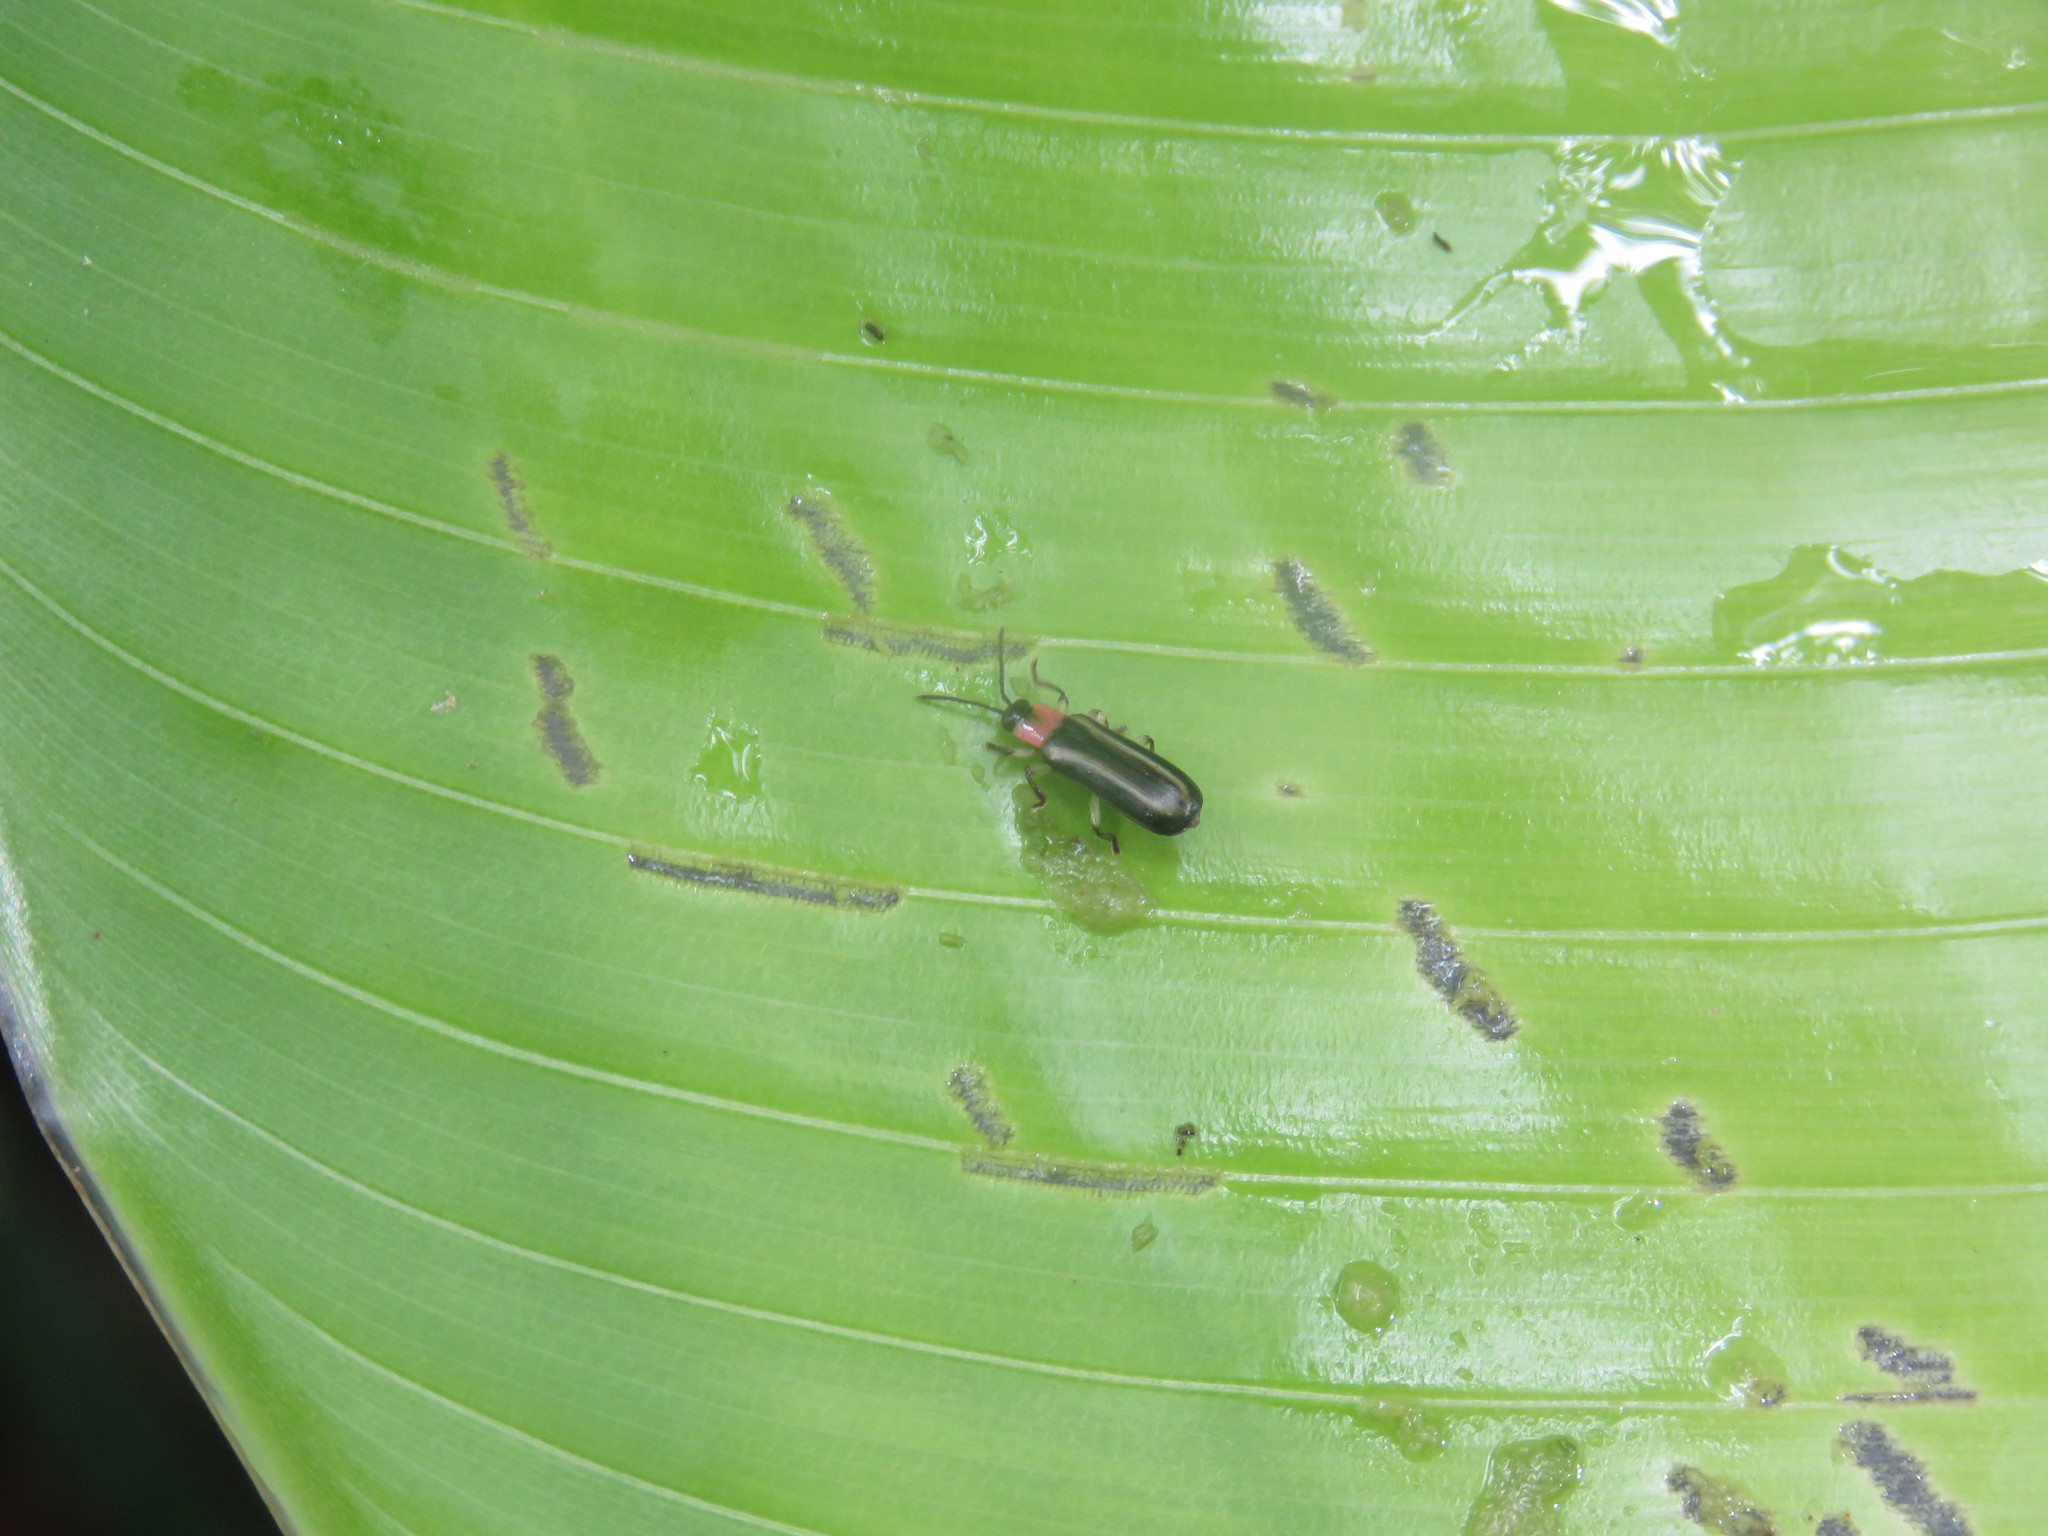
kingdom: Animalia
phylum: Arthropoda
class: Insecta
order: Coleoptera
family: Chrysomelidae
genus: Cephaloleia
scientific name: Cephaloleia belti
